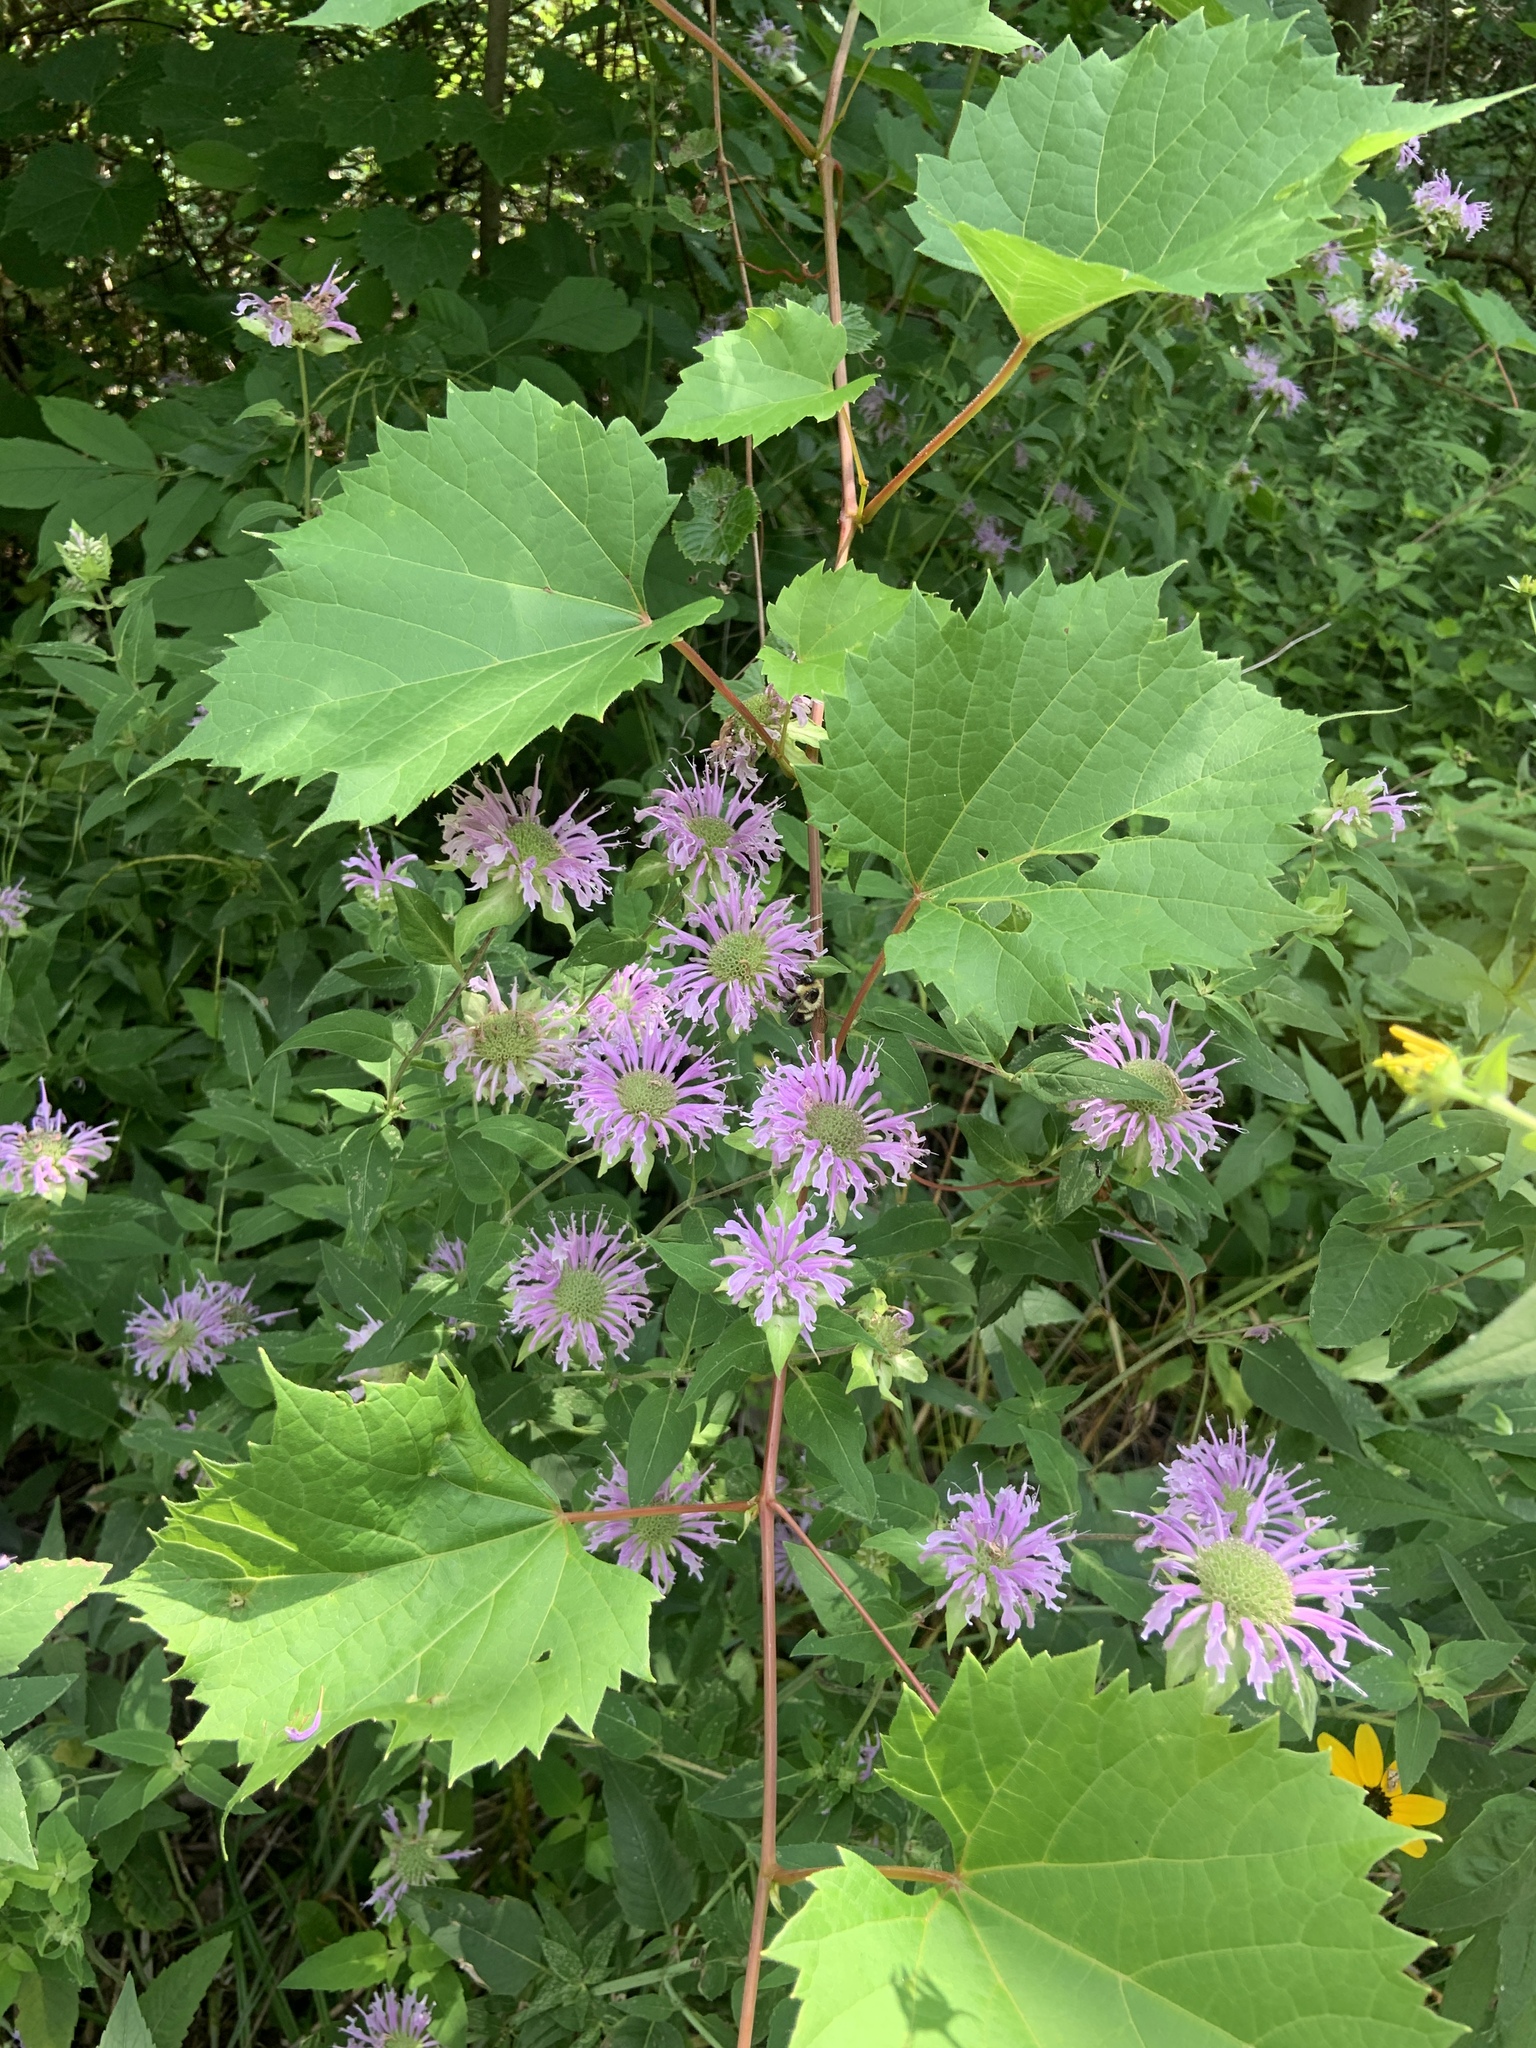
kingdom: Animalia
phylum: Arthropoda
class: Insecta
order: Hymenoptera
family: Apidae
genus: Bombus
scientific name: Bombus bimaculatus
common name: Two-spotted bumble bee
